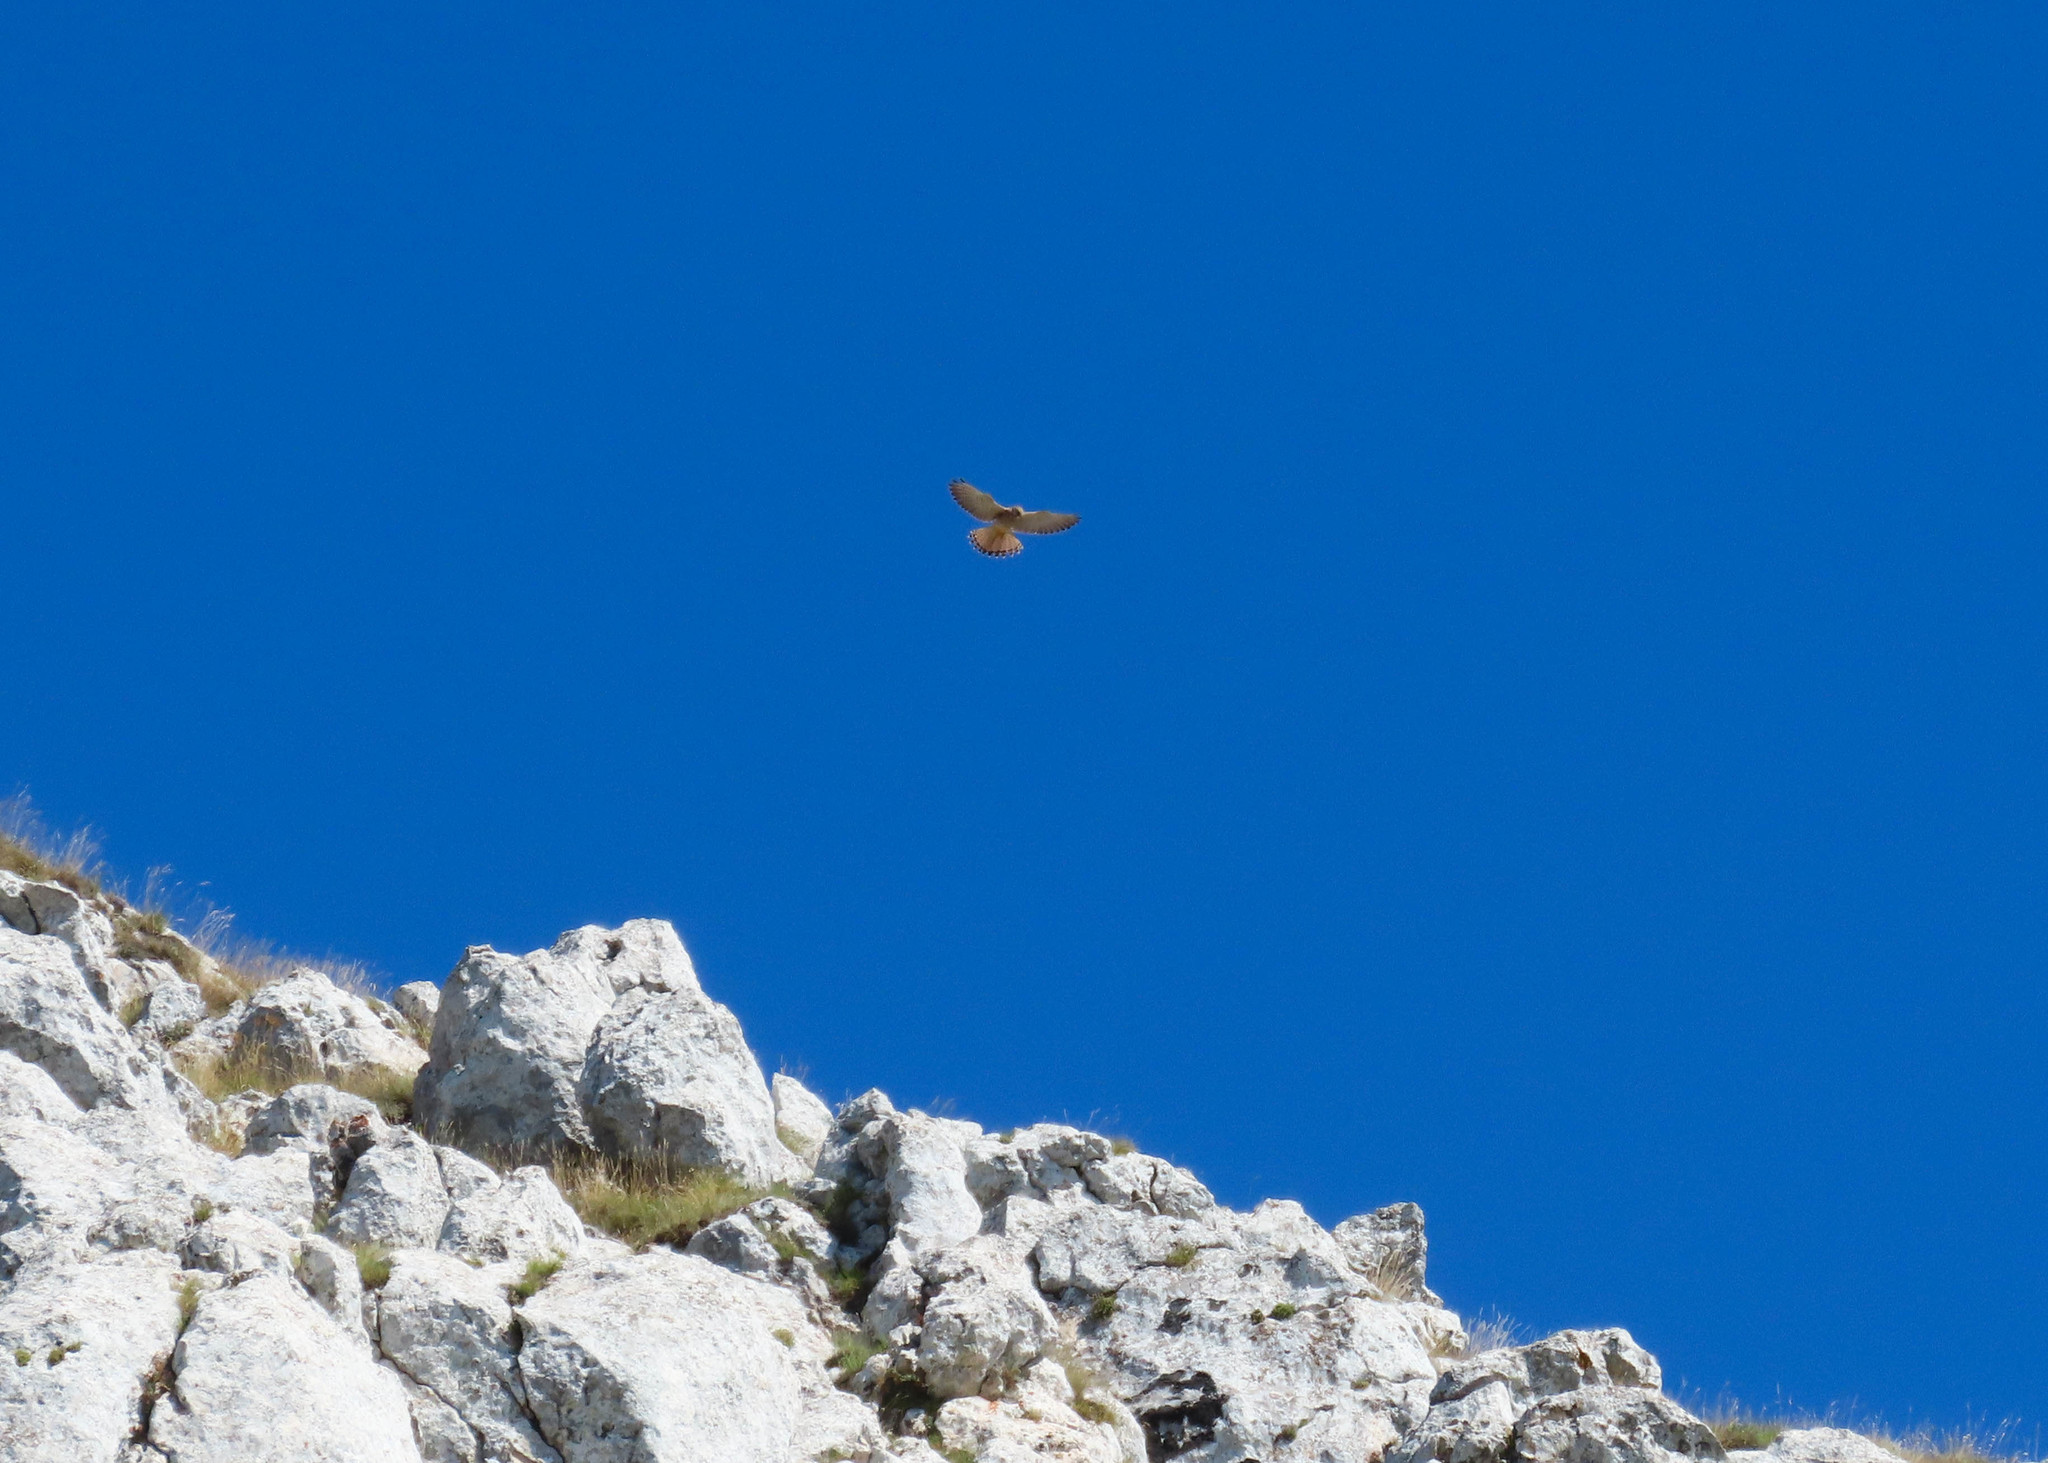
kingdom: Animalia
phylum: Chordata
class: Aves
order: Falconiformes
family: Falconidae
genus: Falco
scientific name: Falco tinnunculus
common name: Common kestrel
